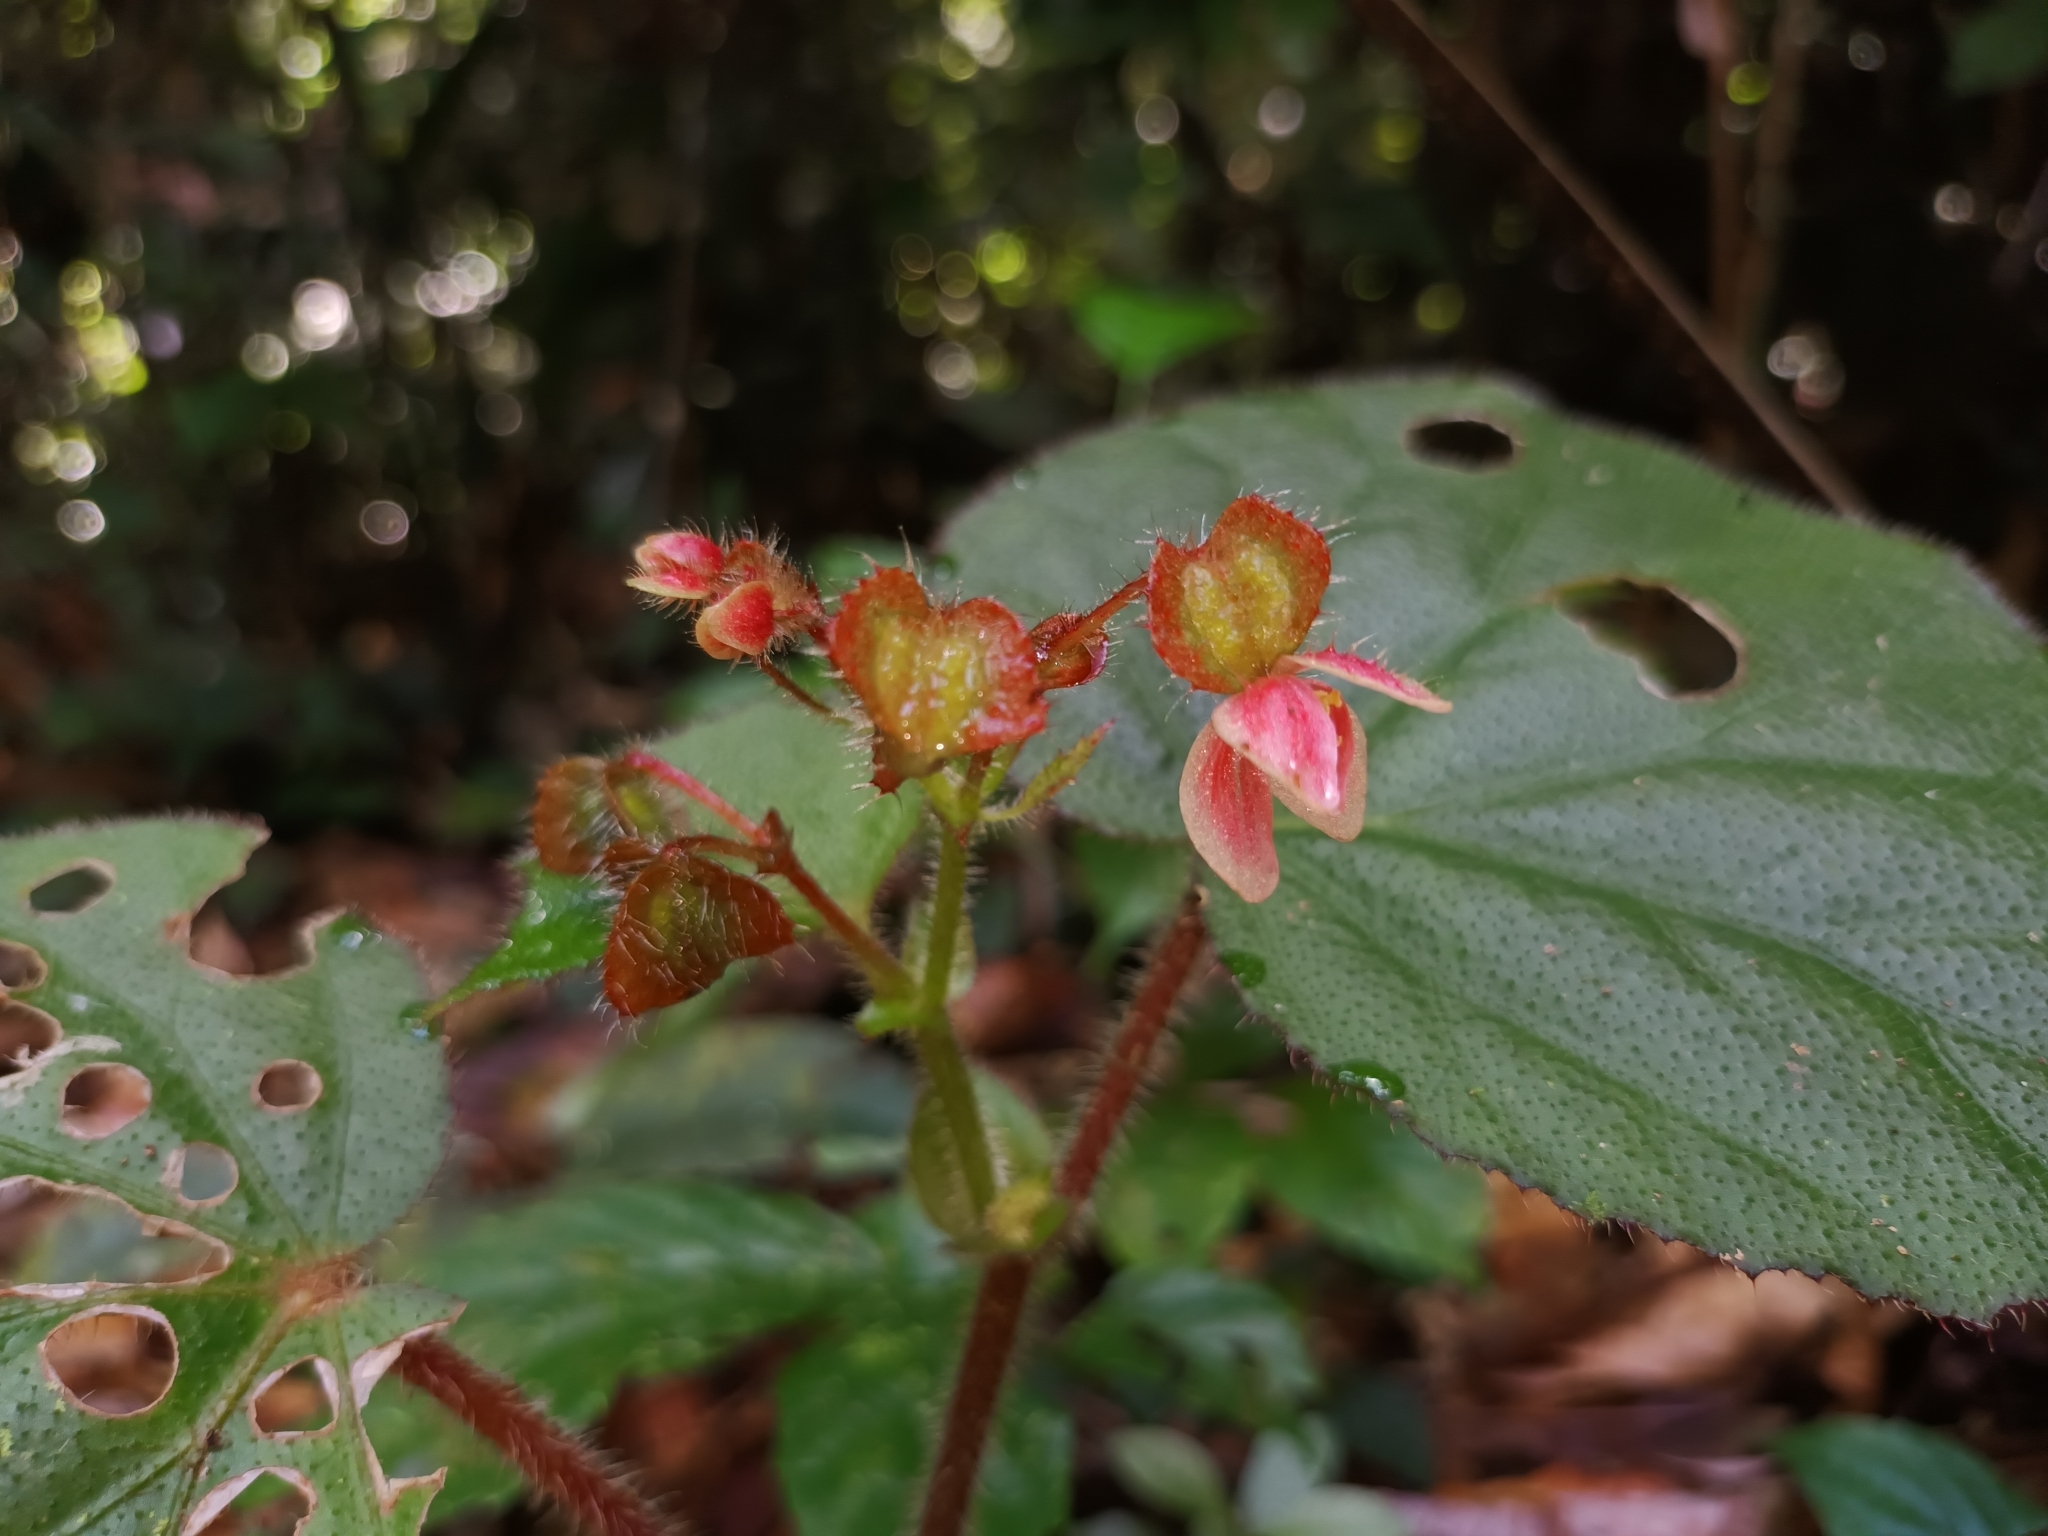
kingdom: Plantae
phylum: Tracheophyta
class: Magnoliopsida
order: Cucurbitales
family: Begoniaceae
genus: Begonia
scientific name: Begonia postarii
